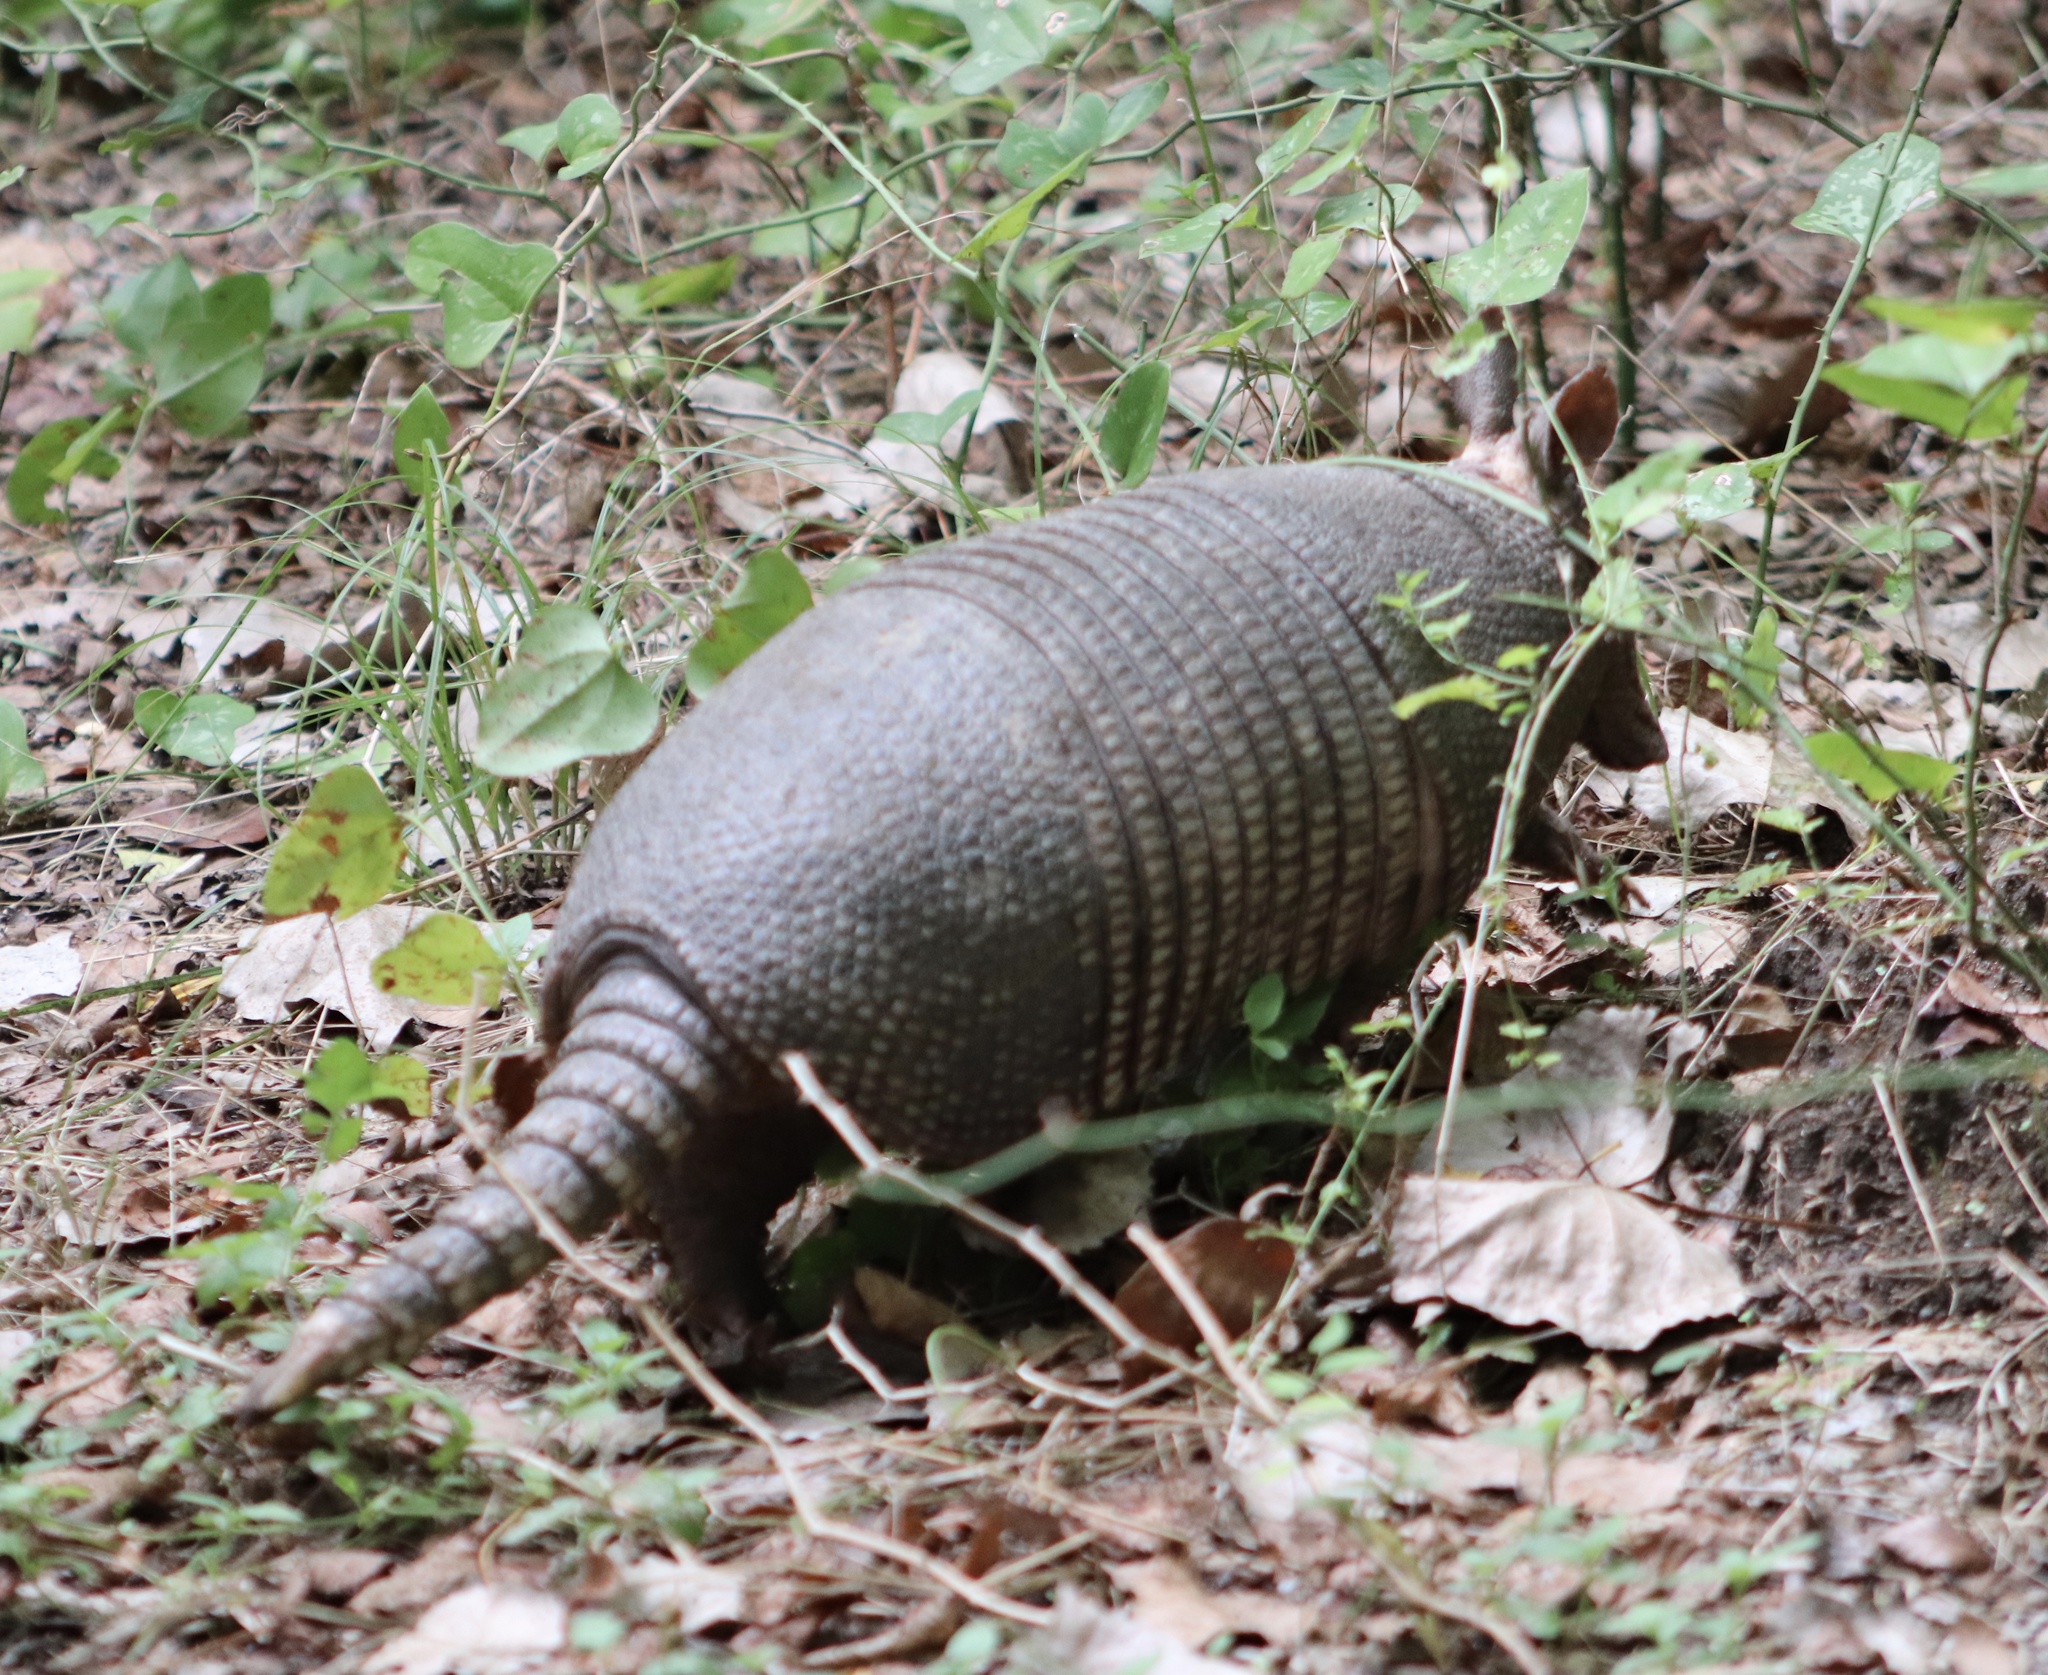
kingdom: Animalia
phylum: Chordata
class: Mammalia
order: Cingulata
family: Dasypodidae
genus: Dasypus
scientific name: Dasypus novemcinctus
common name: Nine-banded armadillo
